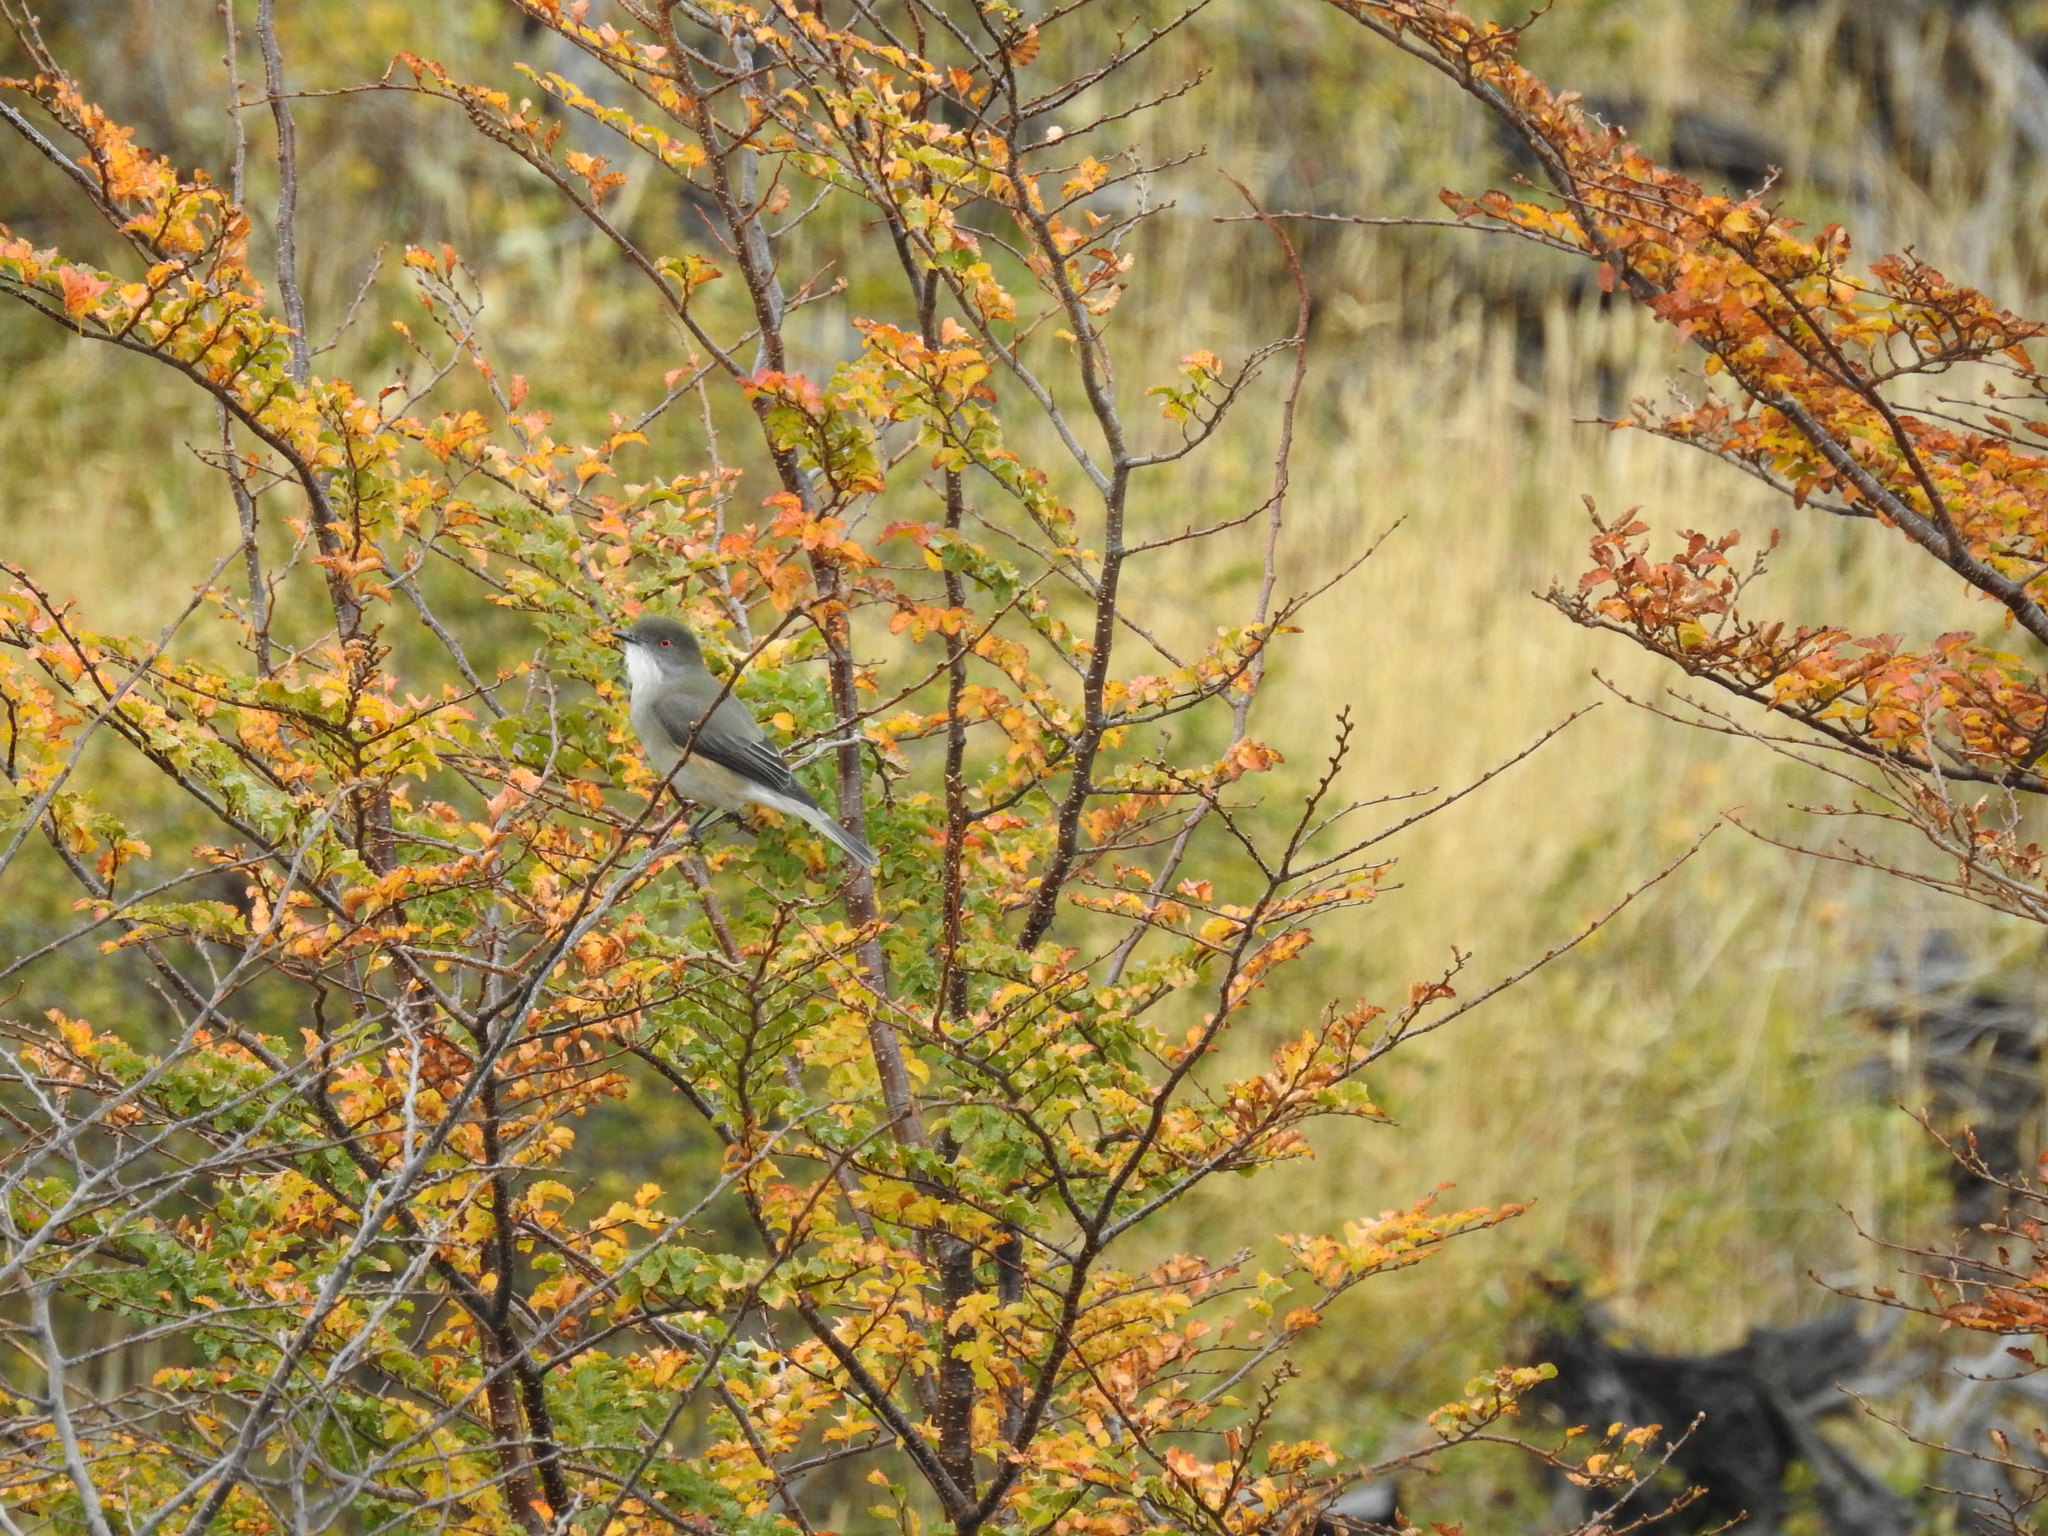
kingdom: Animalia
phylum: Chordata
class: Aves
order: Passeriformes
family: Tyrannidae
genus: Xolmis
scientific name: Xolmis pyrope
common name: Fire-eyed diucon
